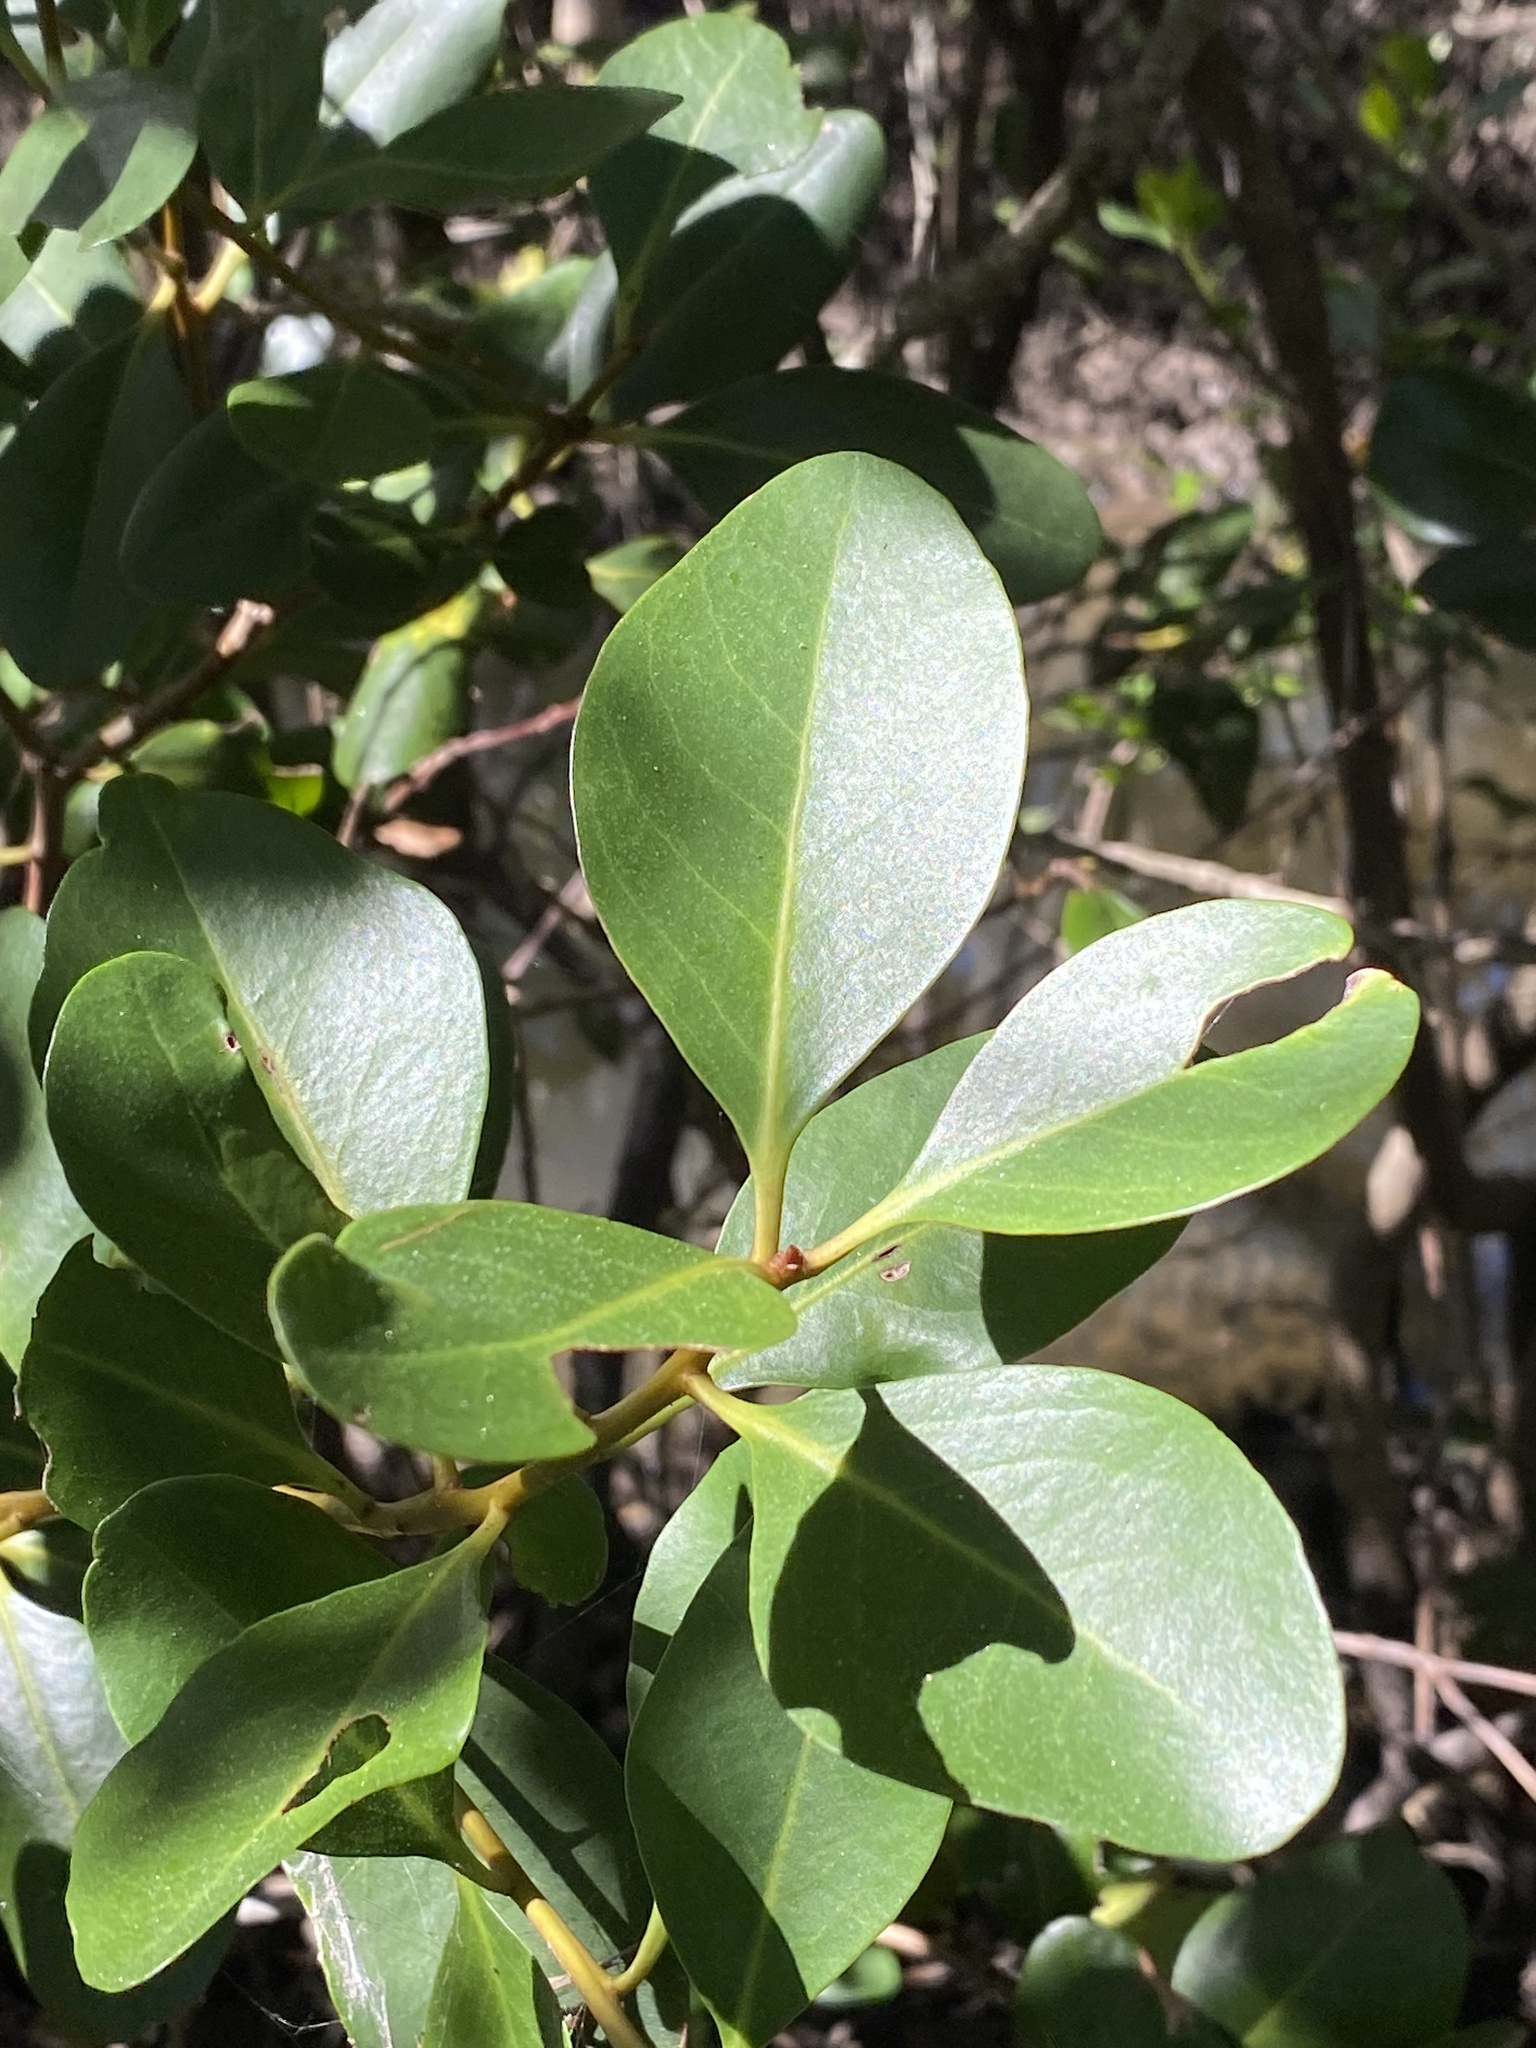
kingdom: Plantae
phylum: Tracheophyta
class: Magnoliopsida
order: Ericales
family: Primulaceae
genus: Aegiceras
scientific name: Aegiceras corniculatum
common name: River mangrove
